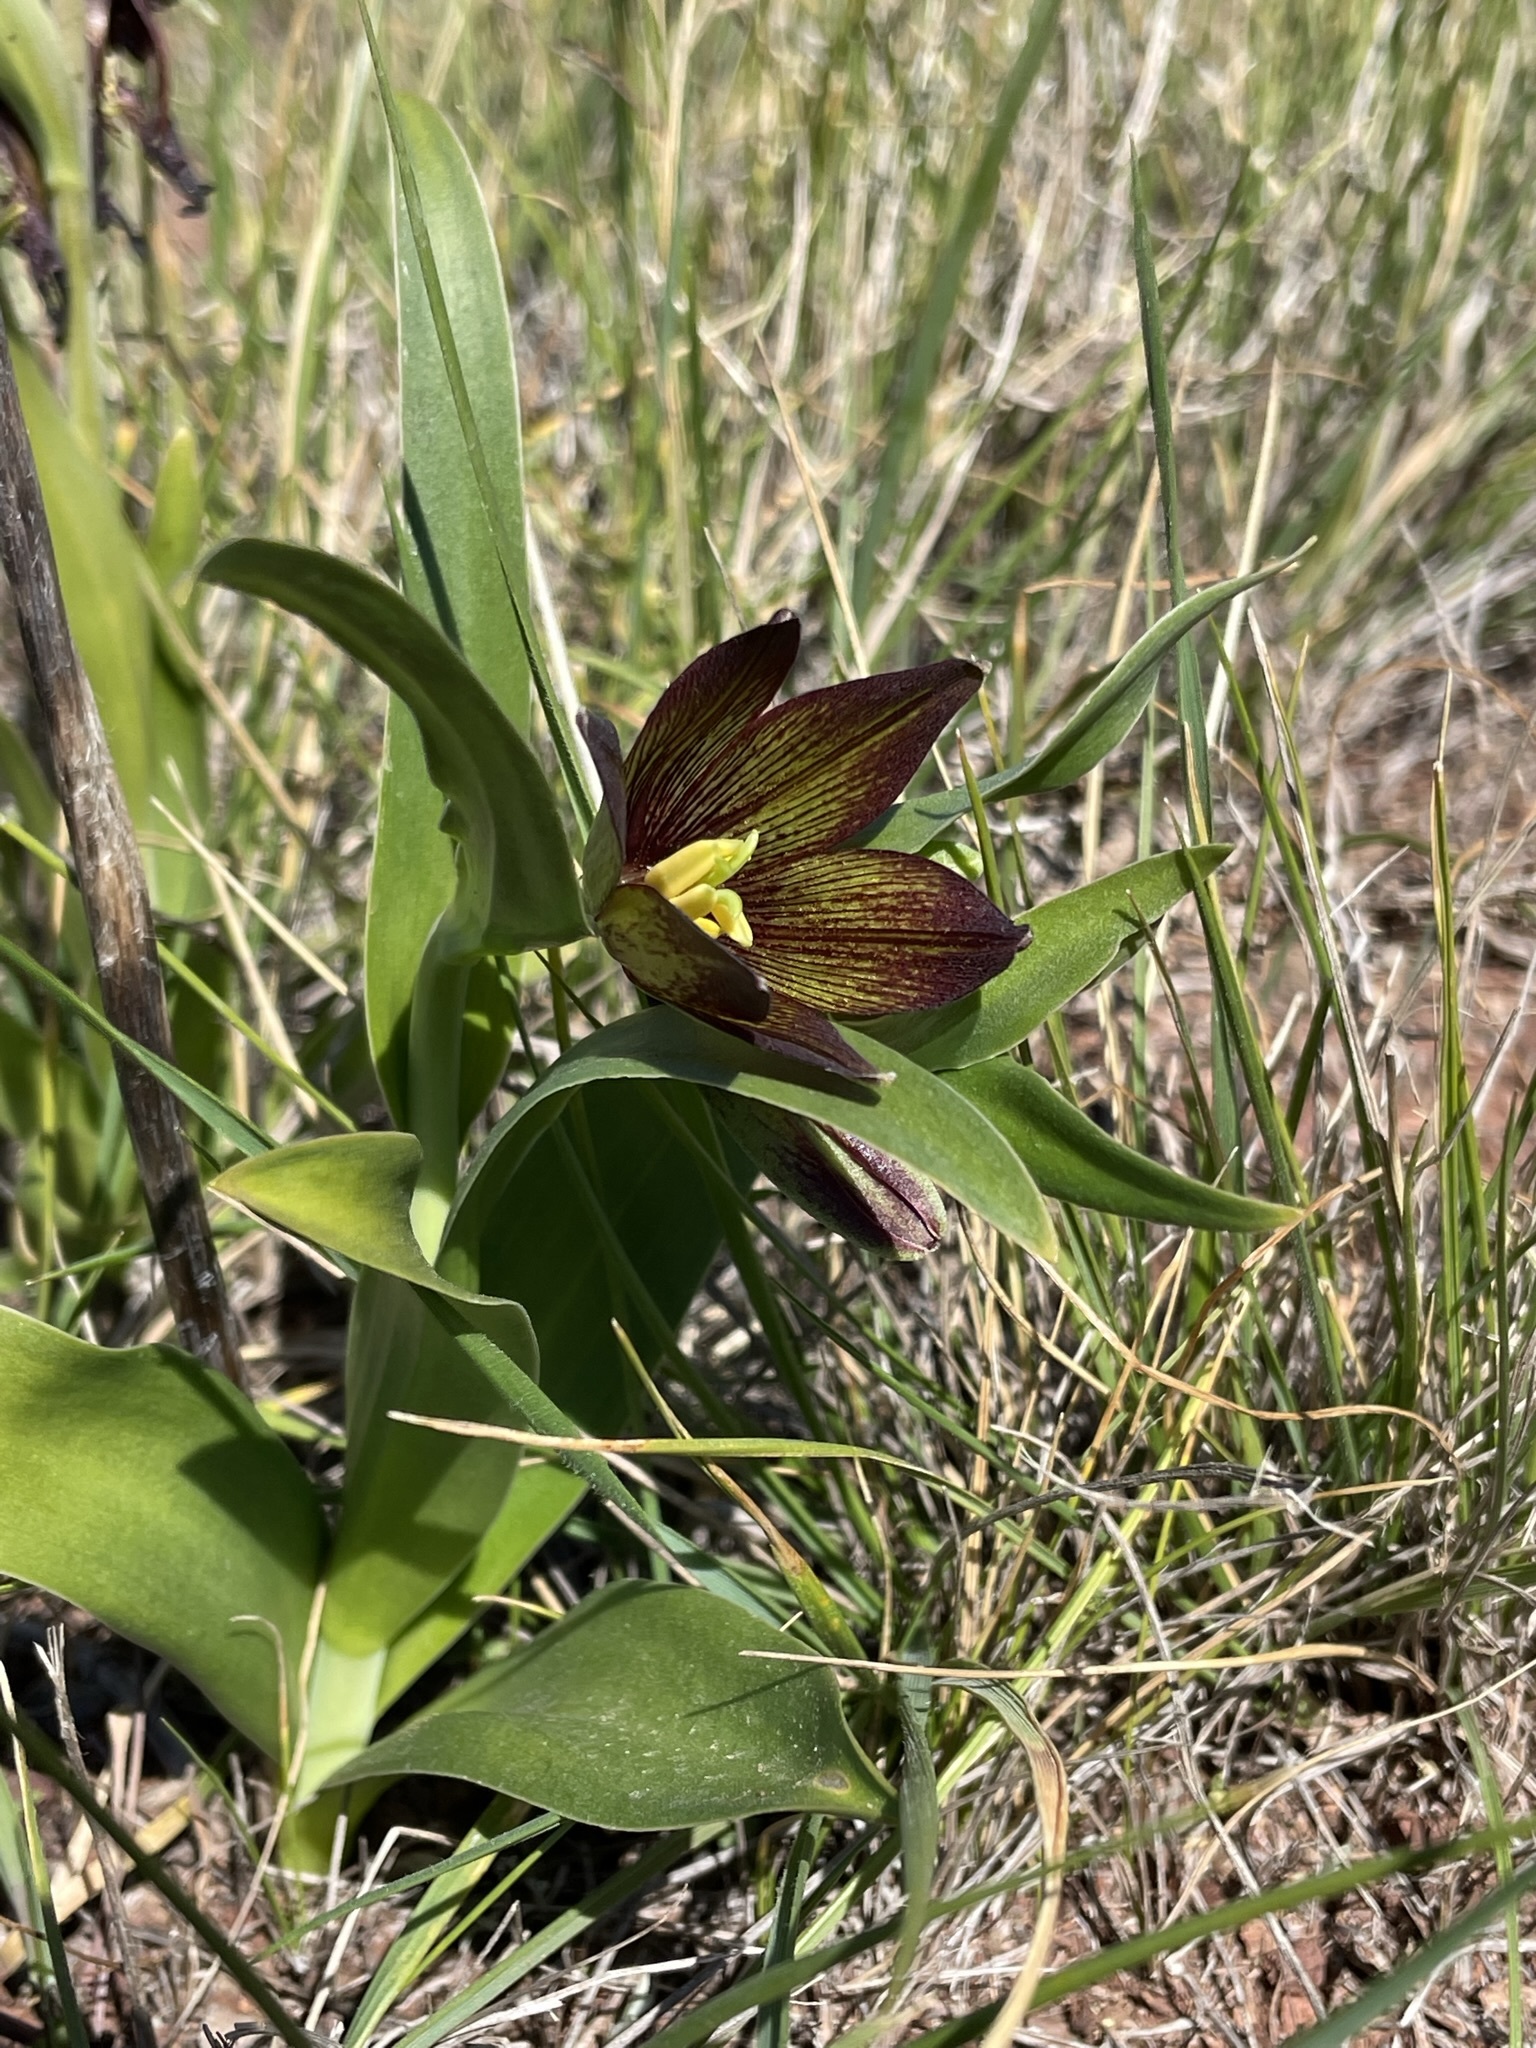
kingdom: Plantae
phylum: Tracheophyta
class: Liliopsida
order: Liliales
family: Liliaceae
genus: Fritillaria
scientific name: Fritillaria biflora
